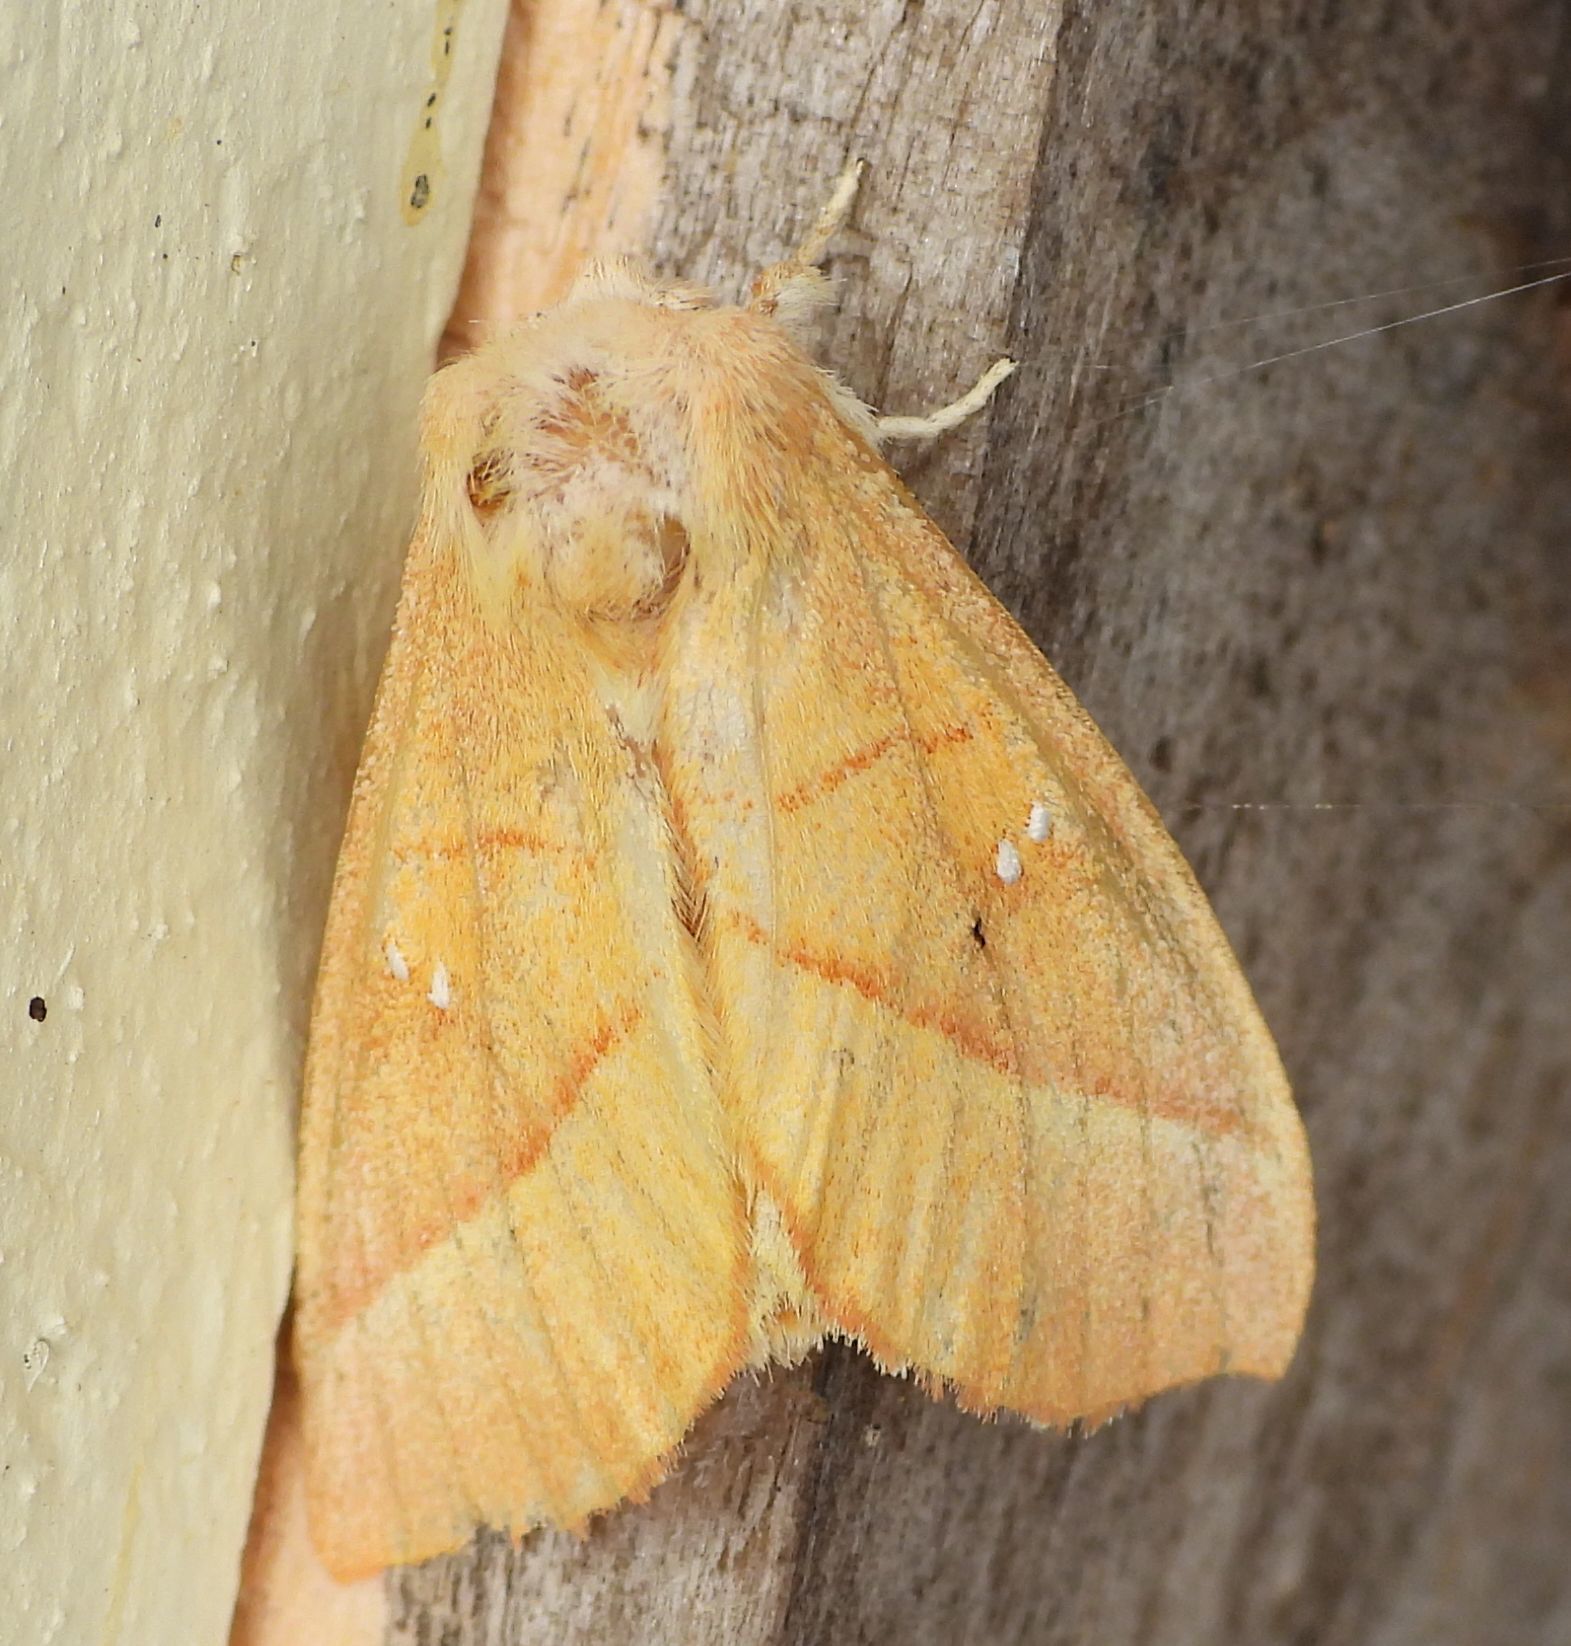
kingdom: Animalia
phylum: Arthropoda
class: Insecta
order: Lepidoptera
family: Notodontidae
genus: Nadata
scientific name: Nadata gibbosa
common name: White-dotted prominent
